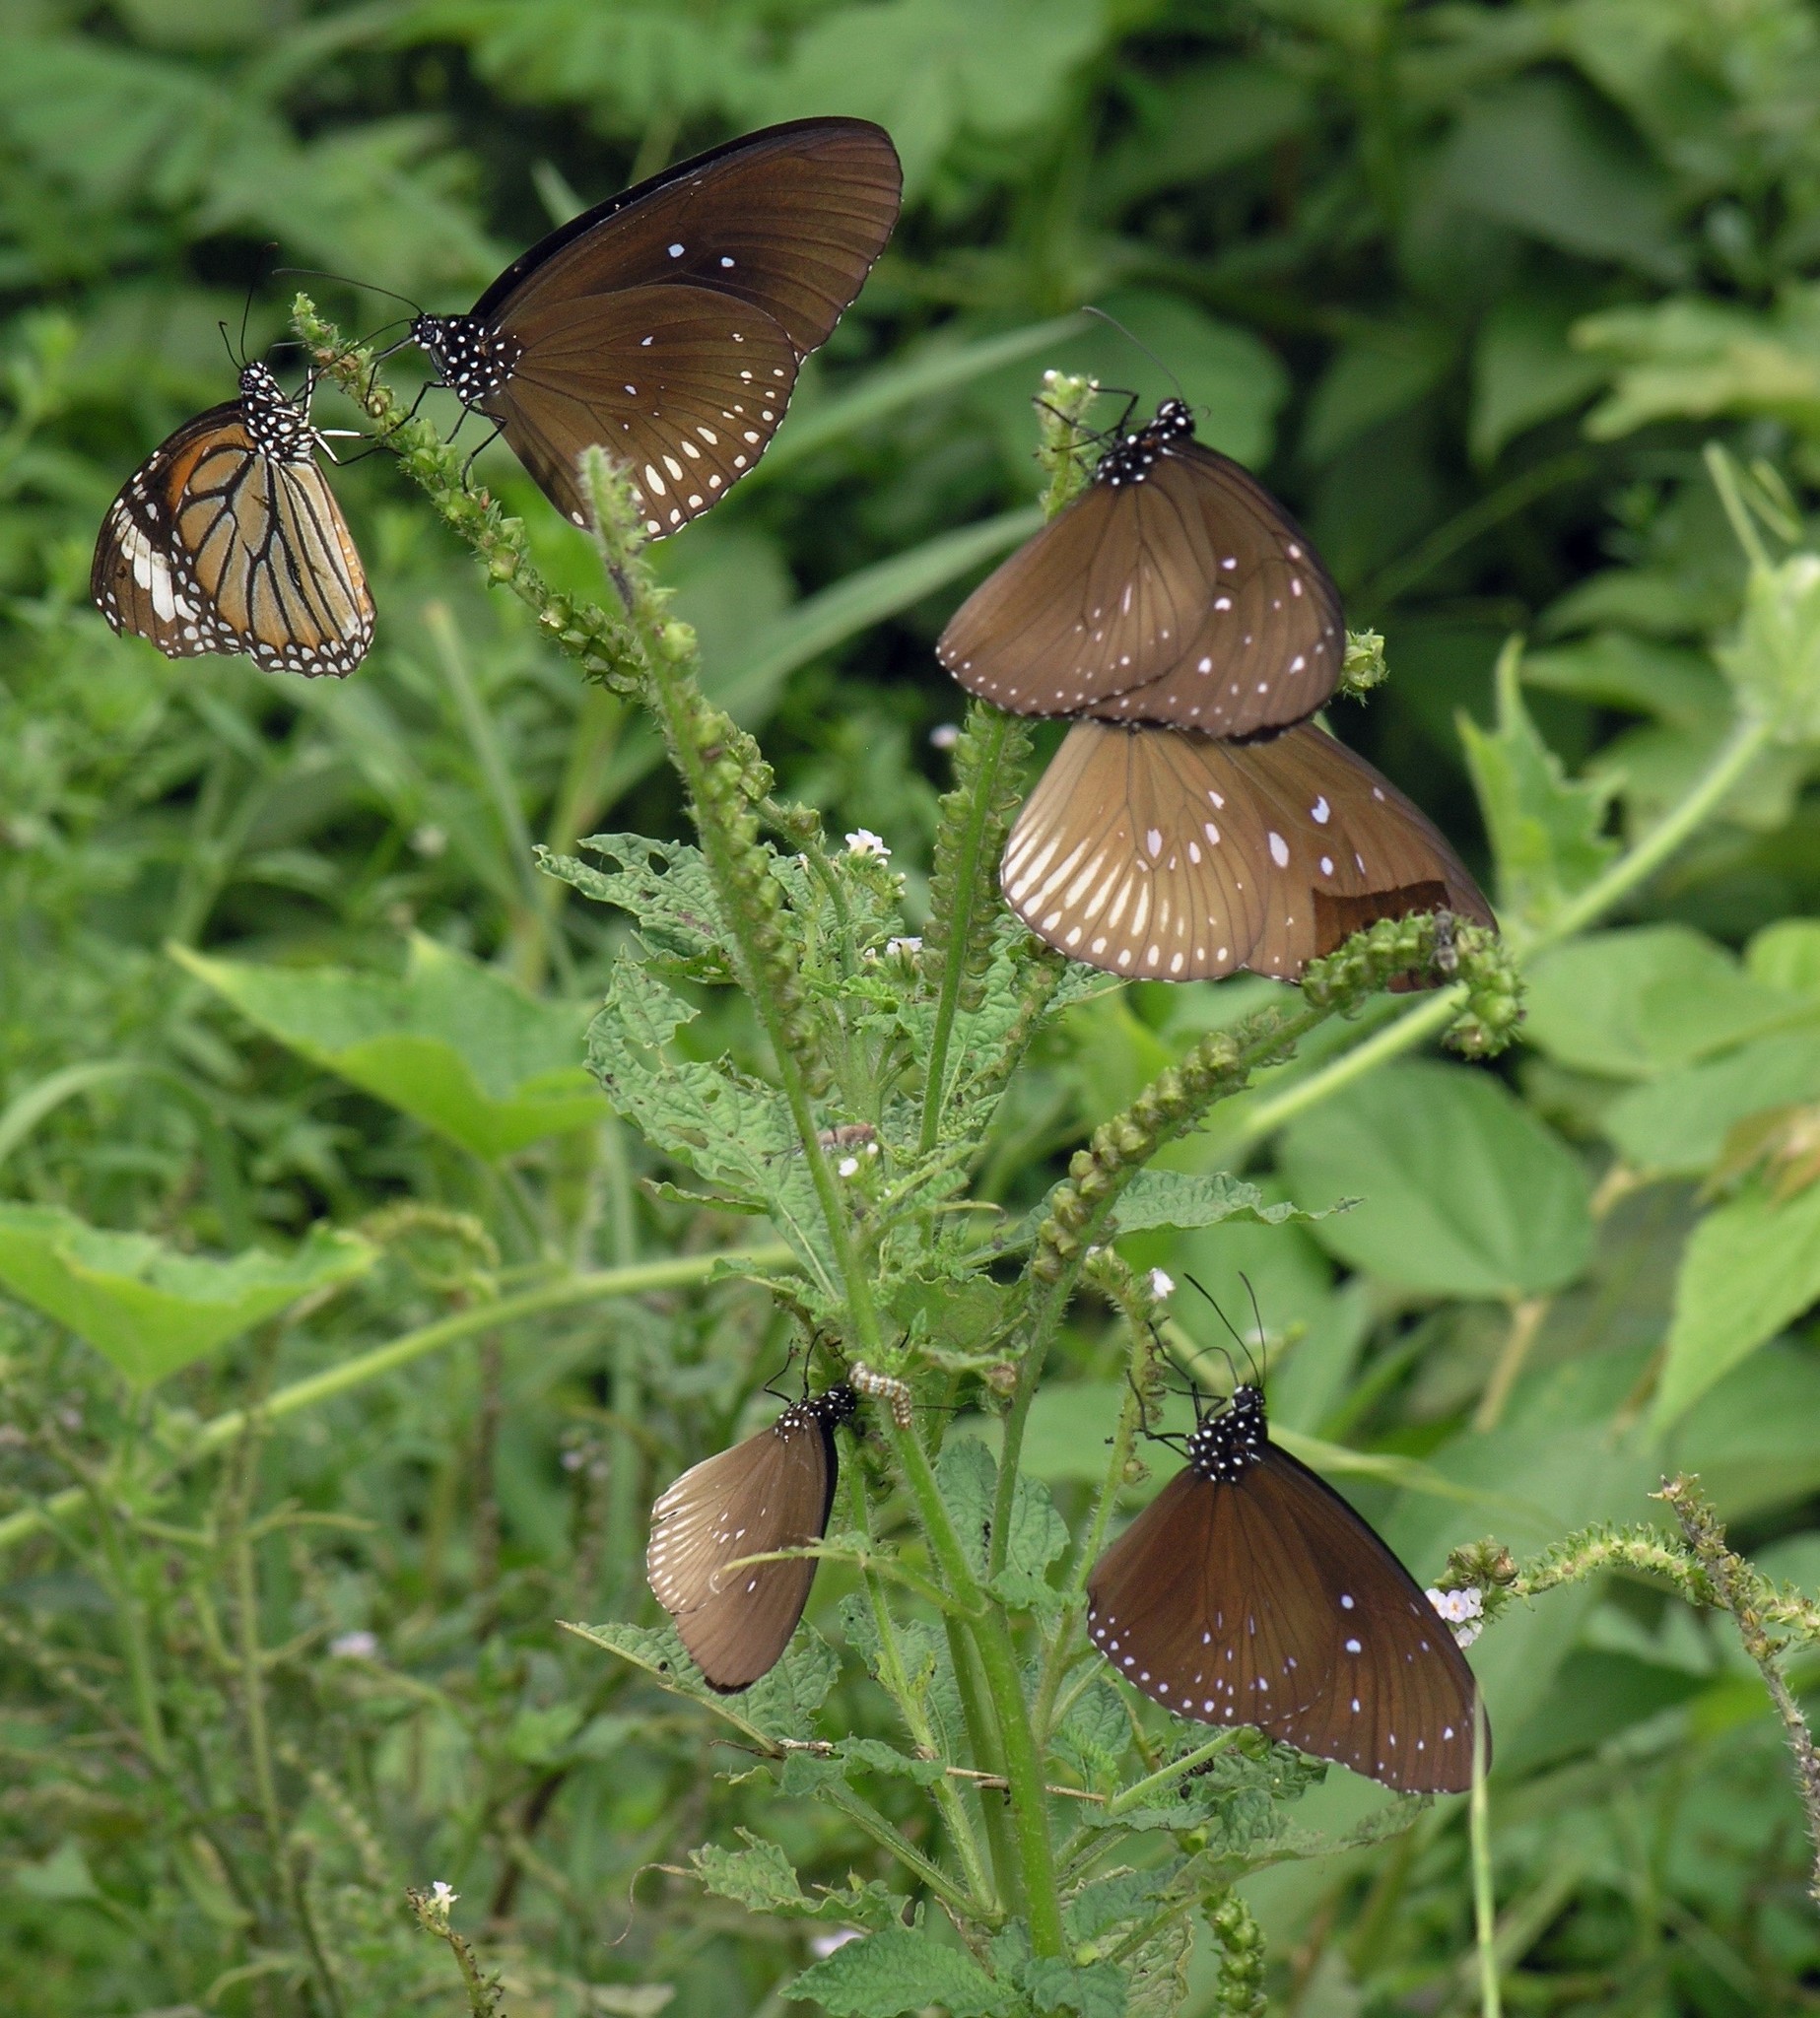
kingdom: Animalia
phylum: Arthropoda
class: Insecta
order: Lepidoptera
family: Nymphalidae
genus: Euploea
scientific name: Euploea core
